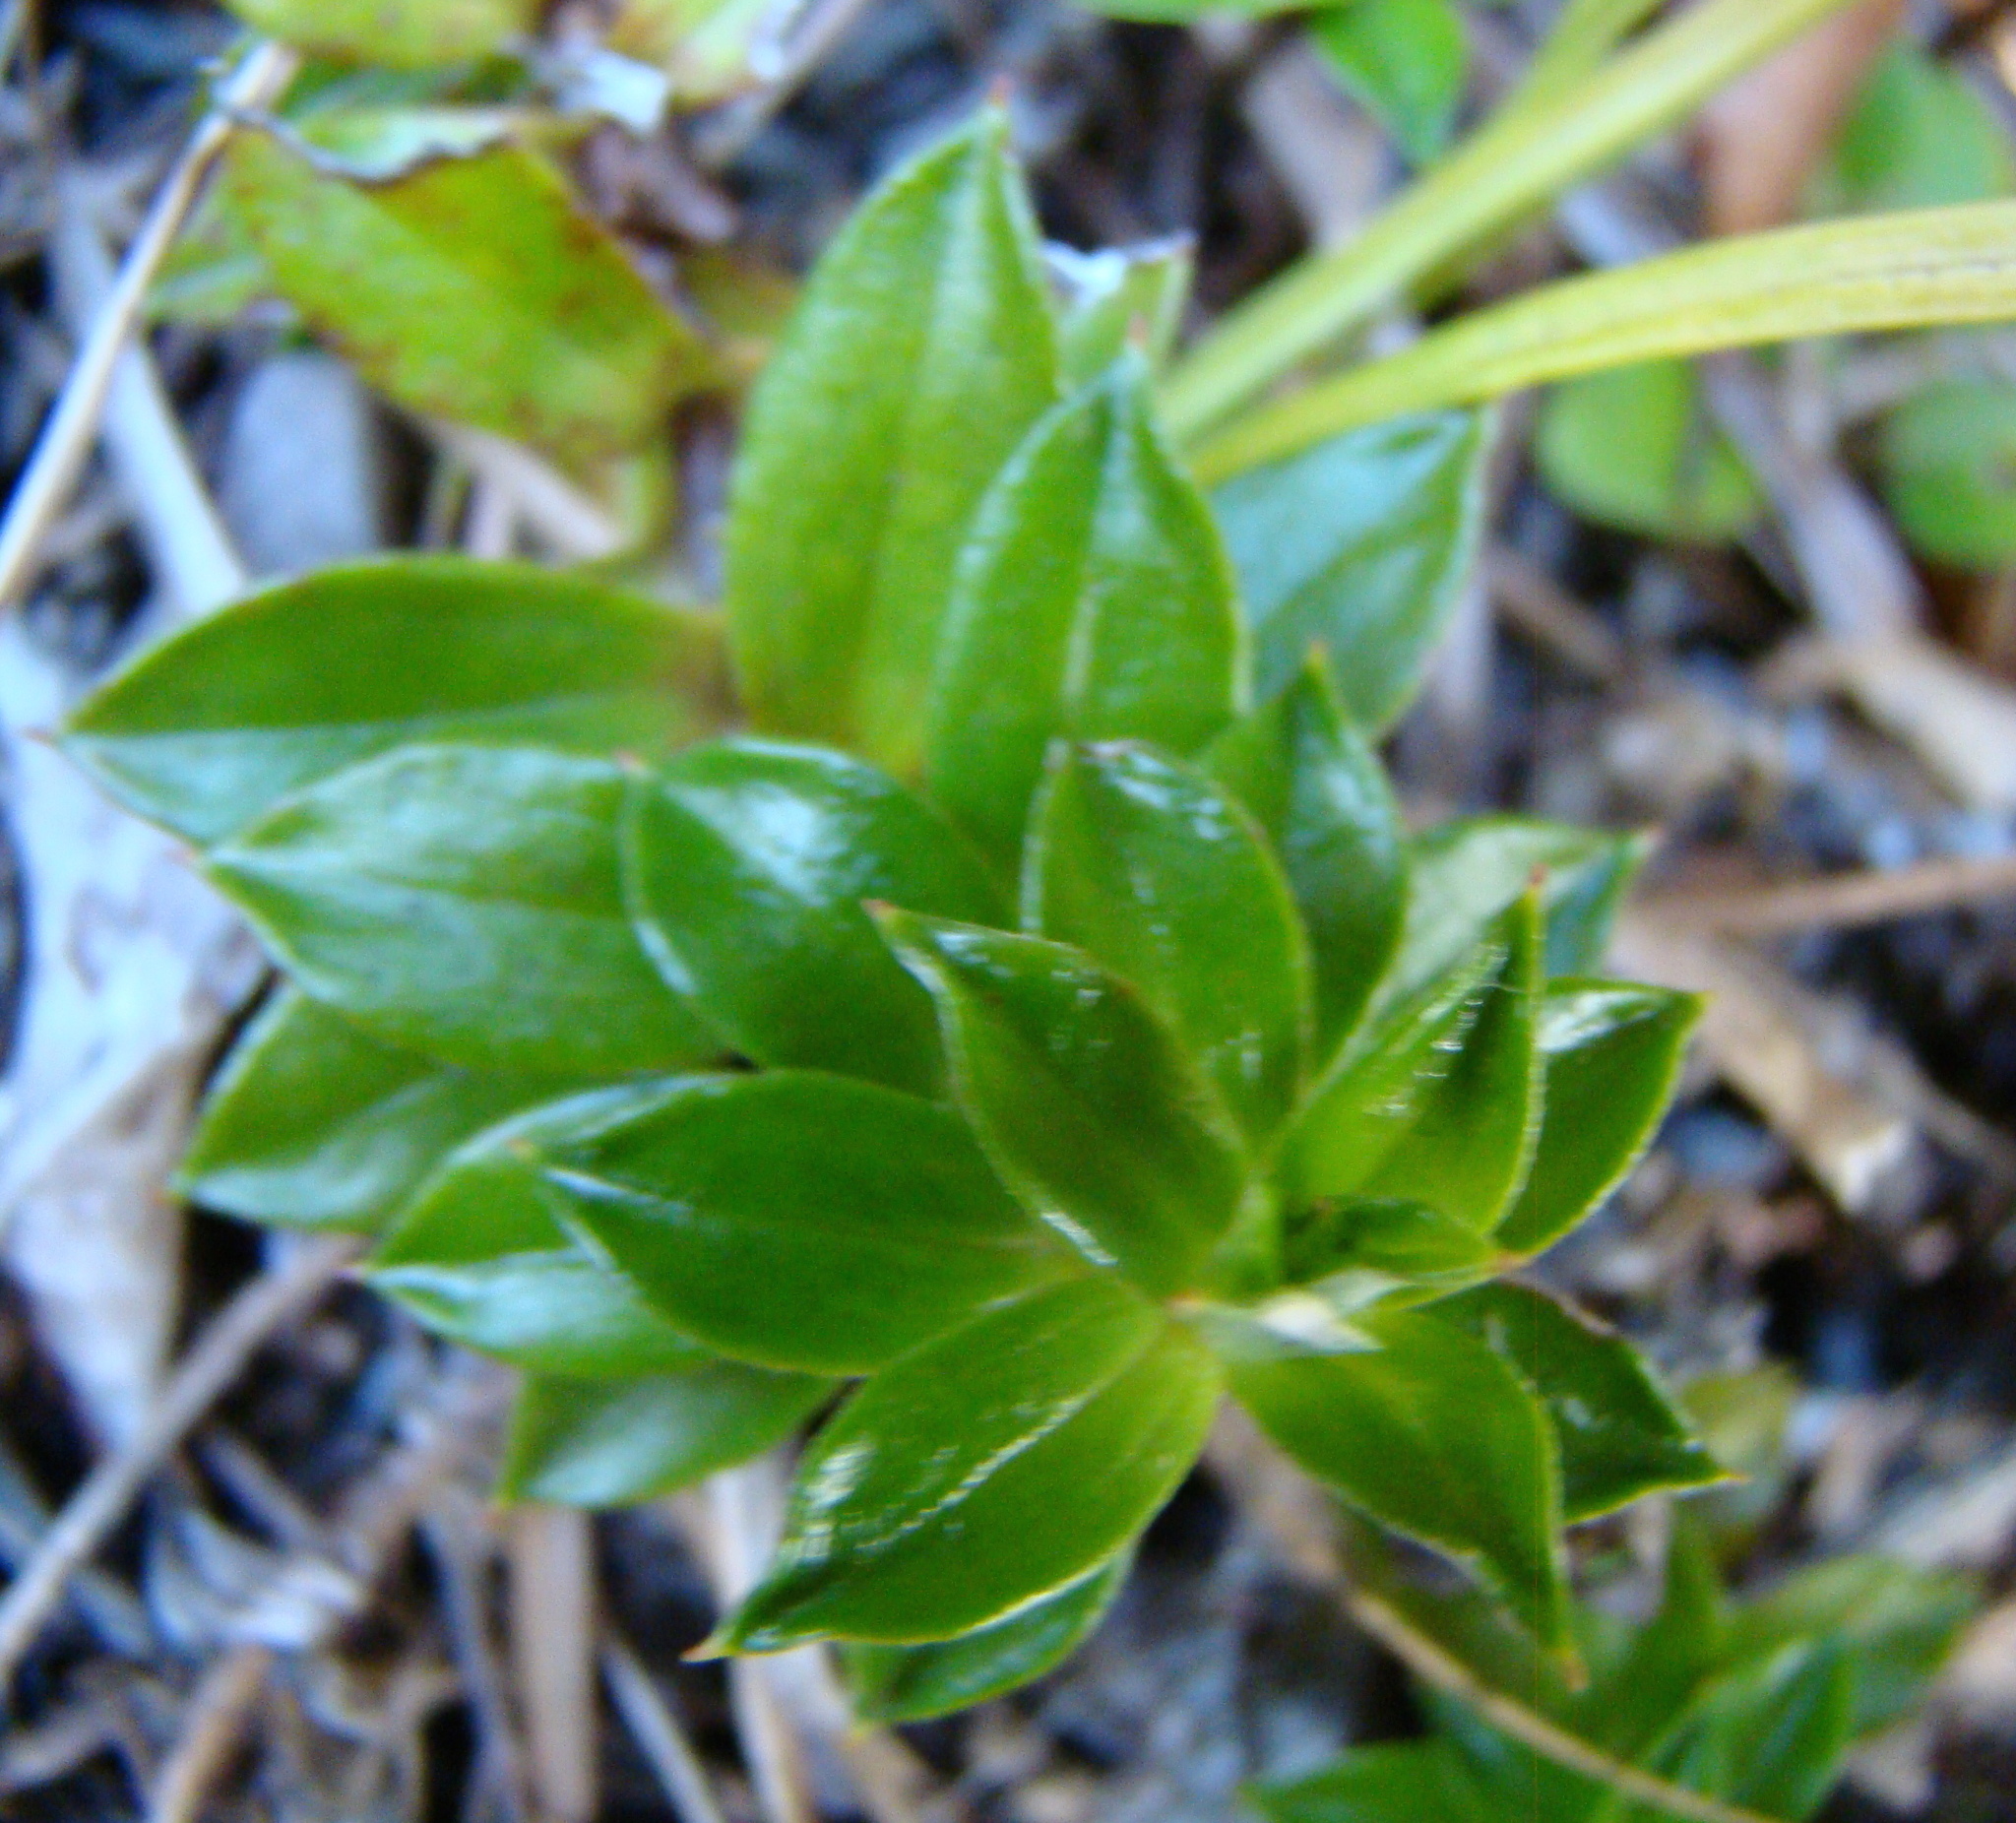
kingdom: Plantae
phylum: Tracheophyta
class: Magnoliopsida
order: Asterales
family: Asteraceae
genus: Anaphalioides
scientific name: Anaphalioides hookeri
